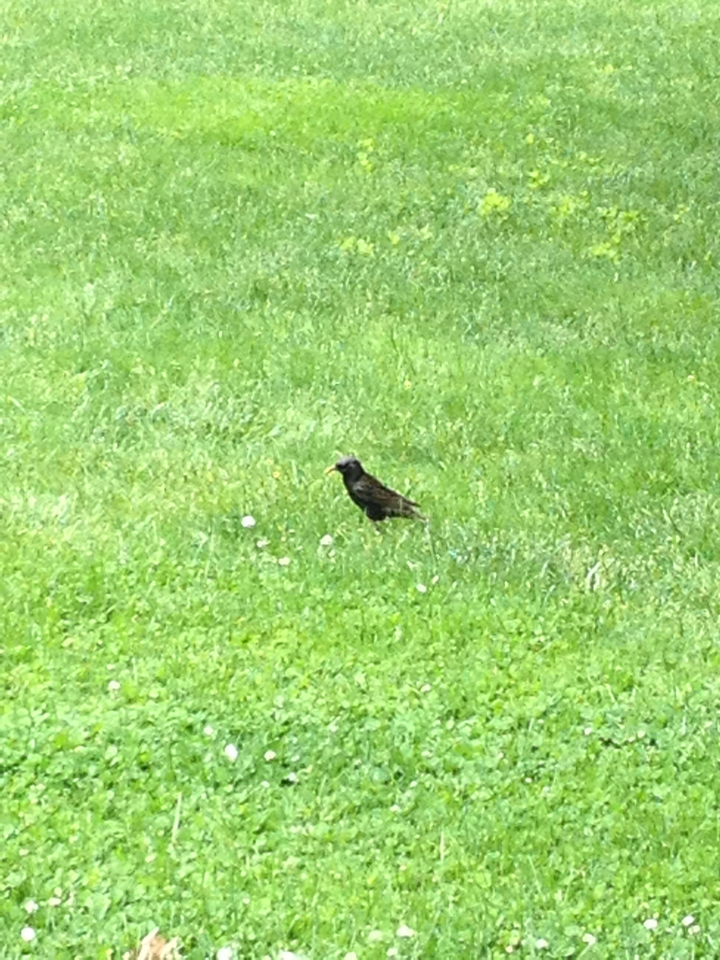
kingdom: Animalia
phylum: Chordata
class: Aves
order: Passeriformes
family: Sturnidae
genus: Sturnus
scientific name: Sturnus vulgaris
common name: Common starling
